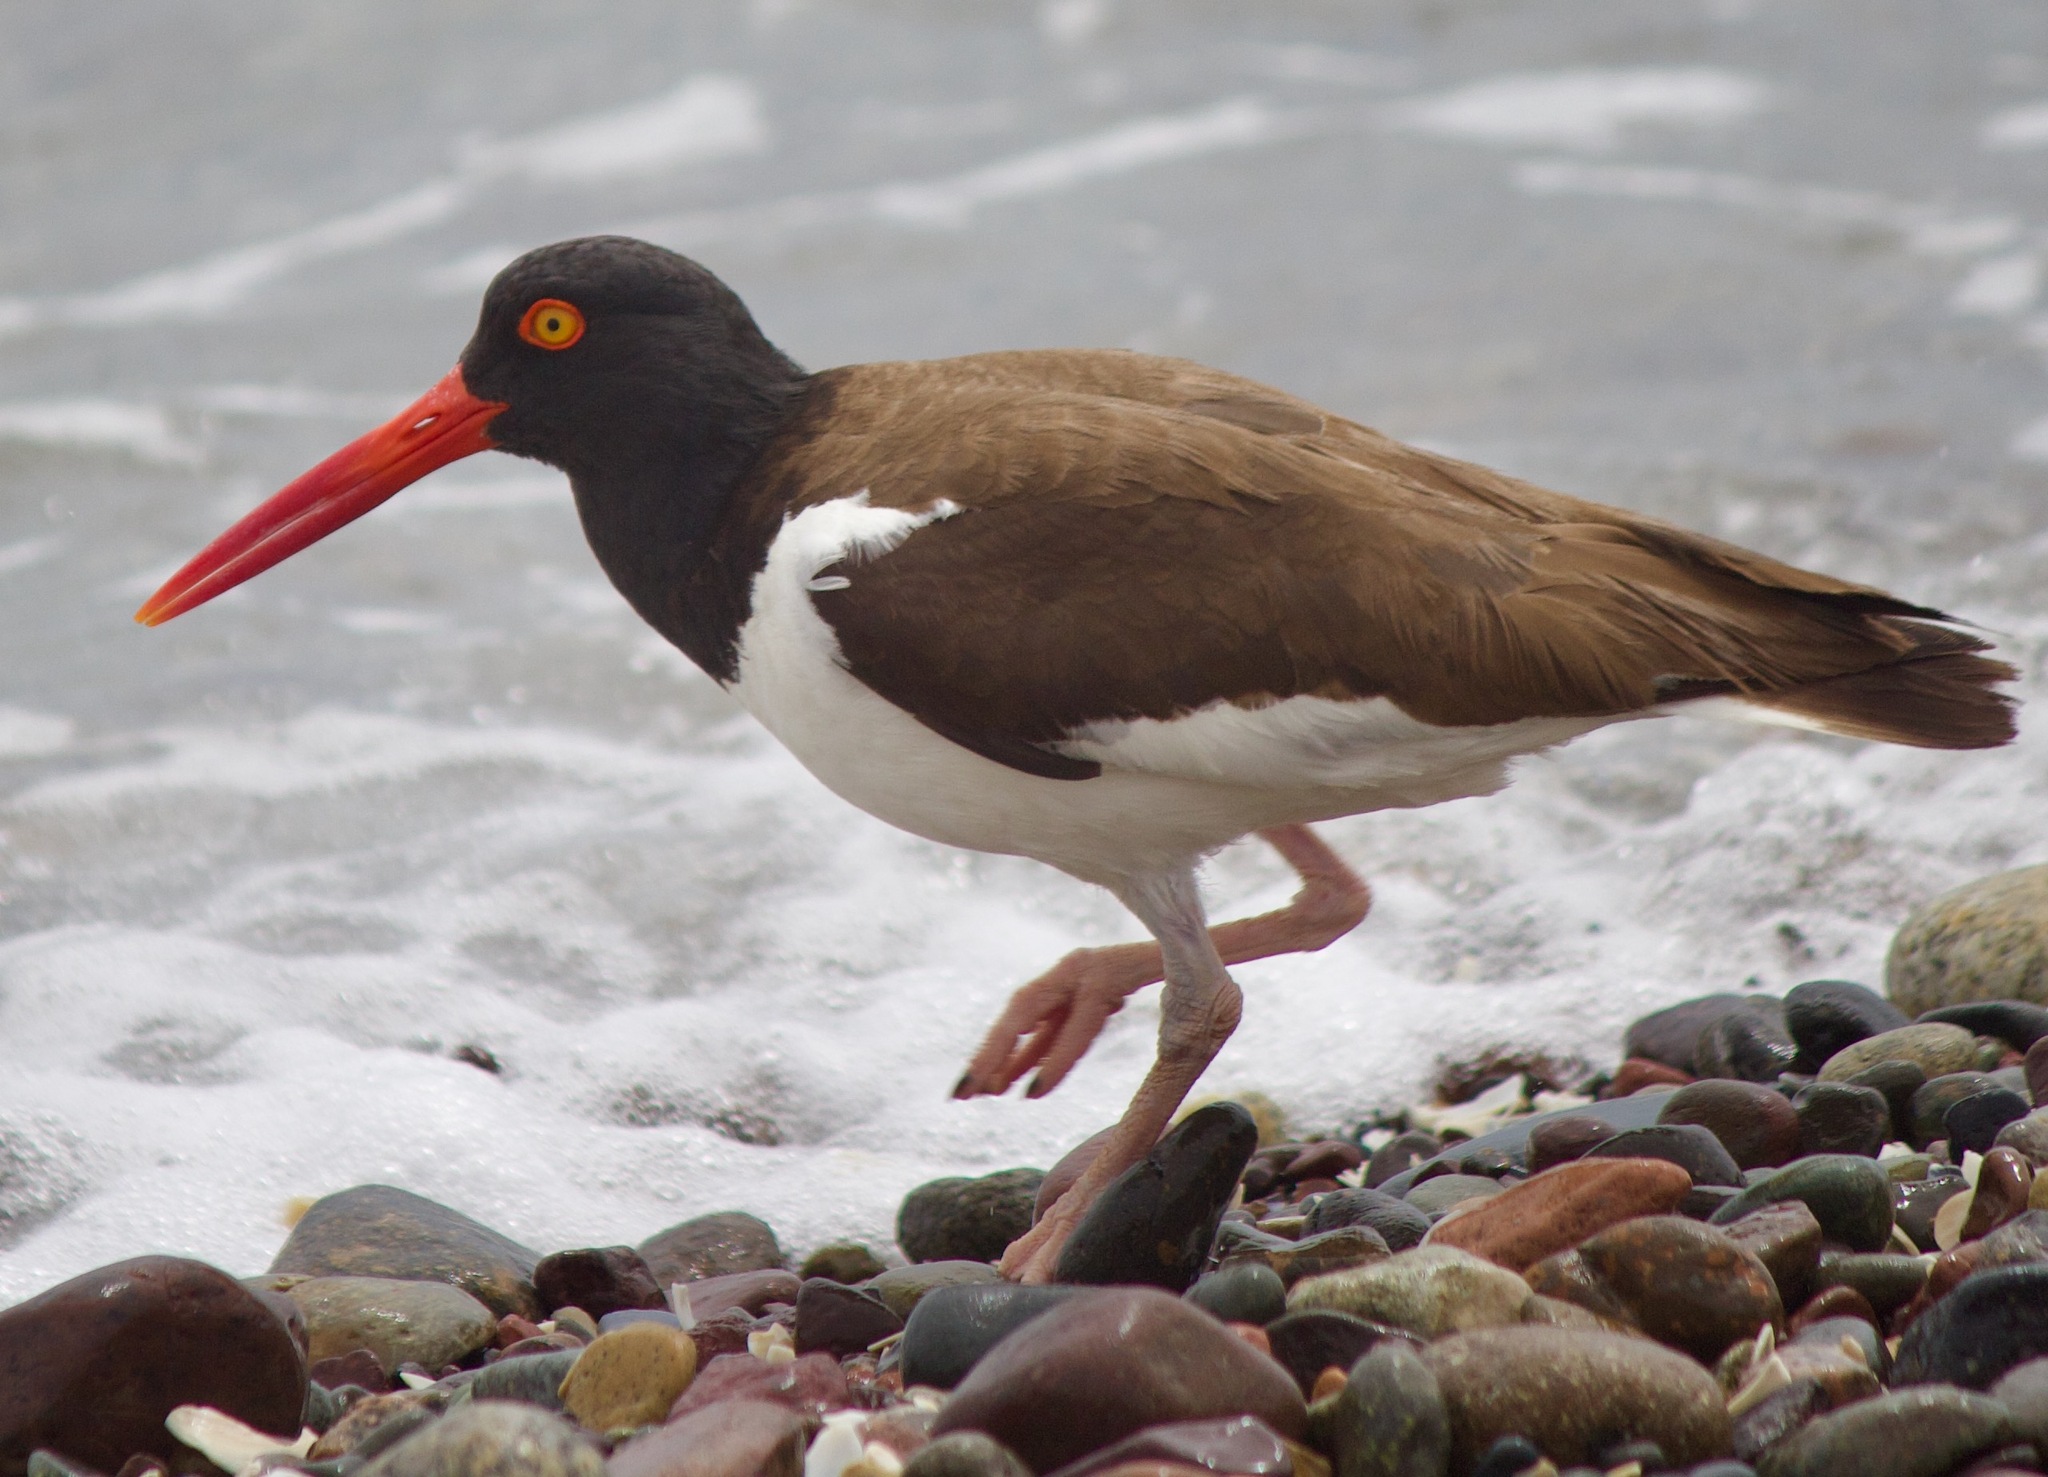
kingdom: Animalia
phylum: Chordata
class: Aves
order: Charadriiformes
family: Haematopodidae
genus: Haematopus
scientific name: Haematopus palliatus
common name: American oystercatcher
